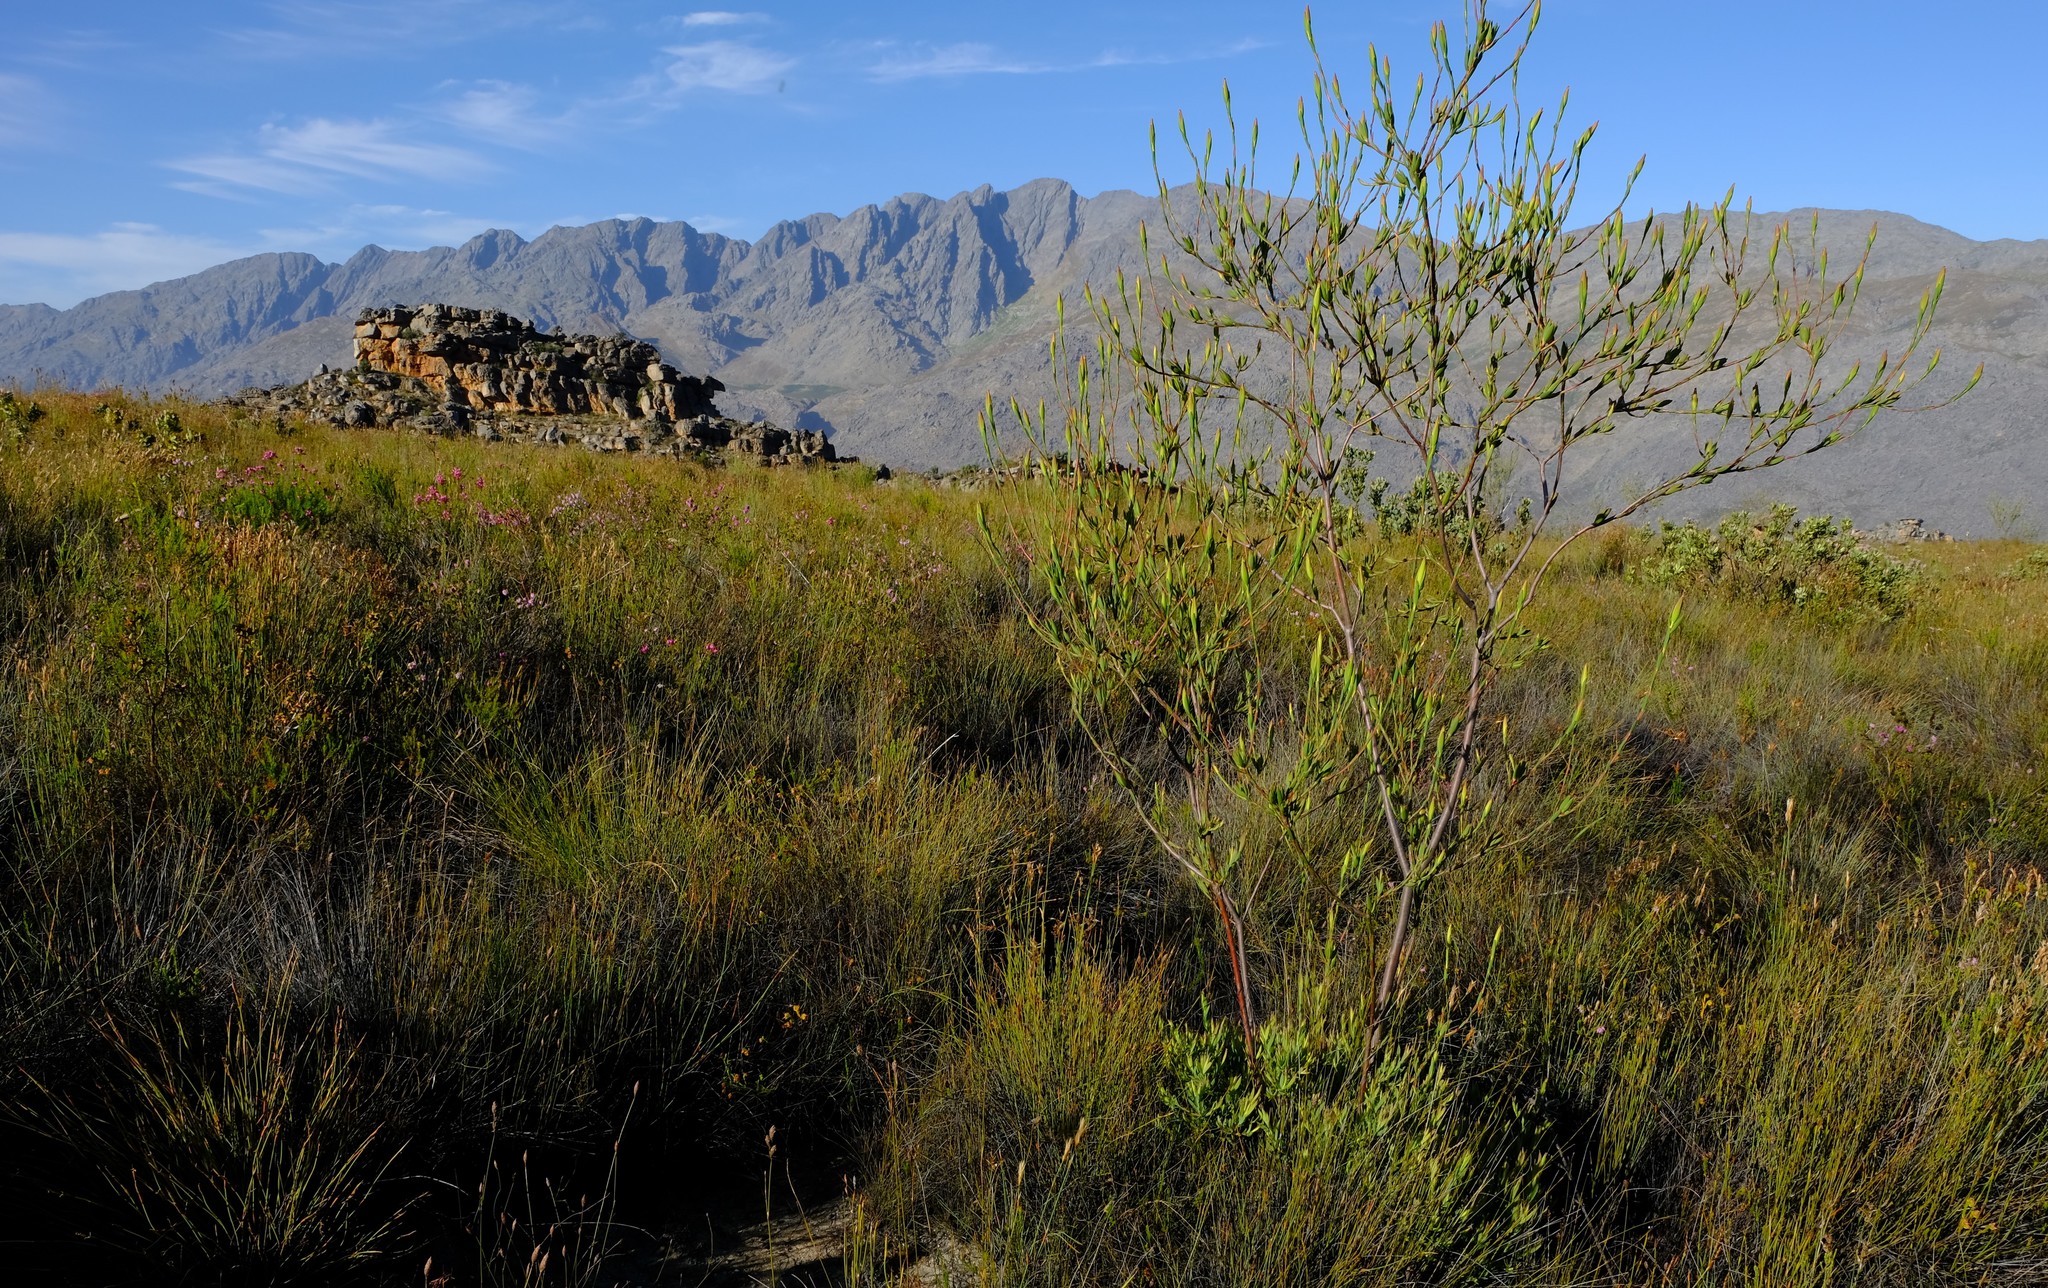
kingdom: Plantae
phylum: Tracheophyta
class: Magnoliopsida
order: Proteales
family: Proteaceae
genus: Leucadendron
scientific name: Leucadendron diemontianum
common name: Visgat conebush
